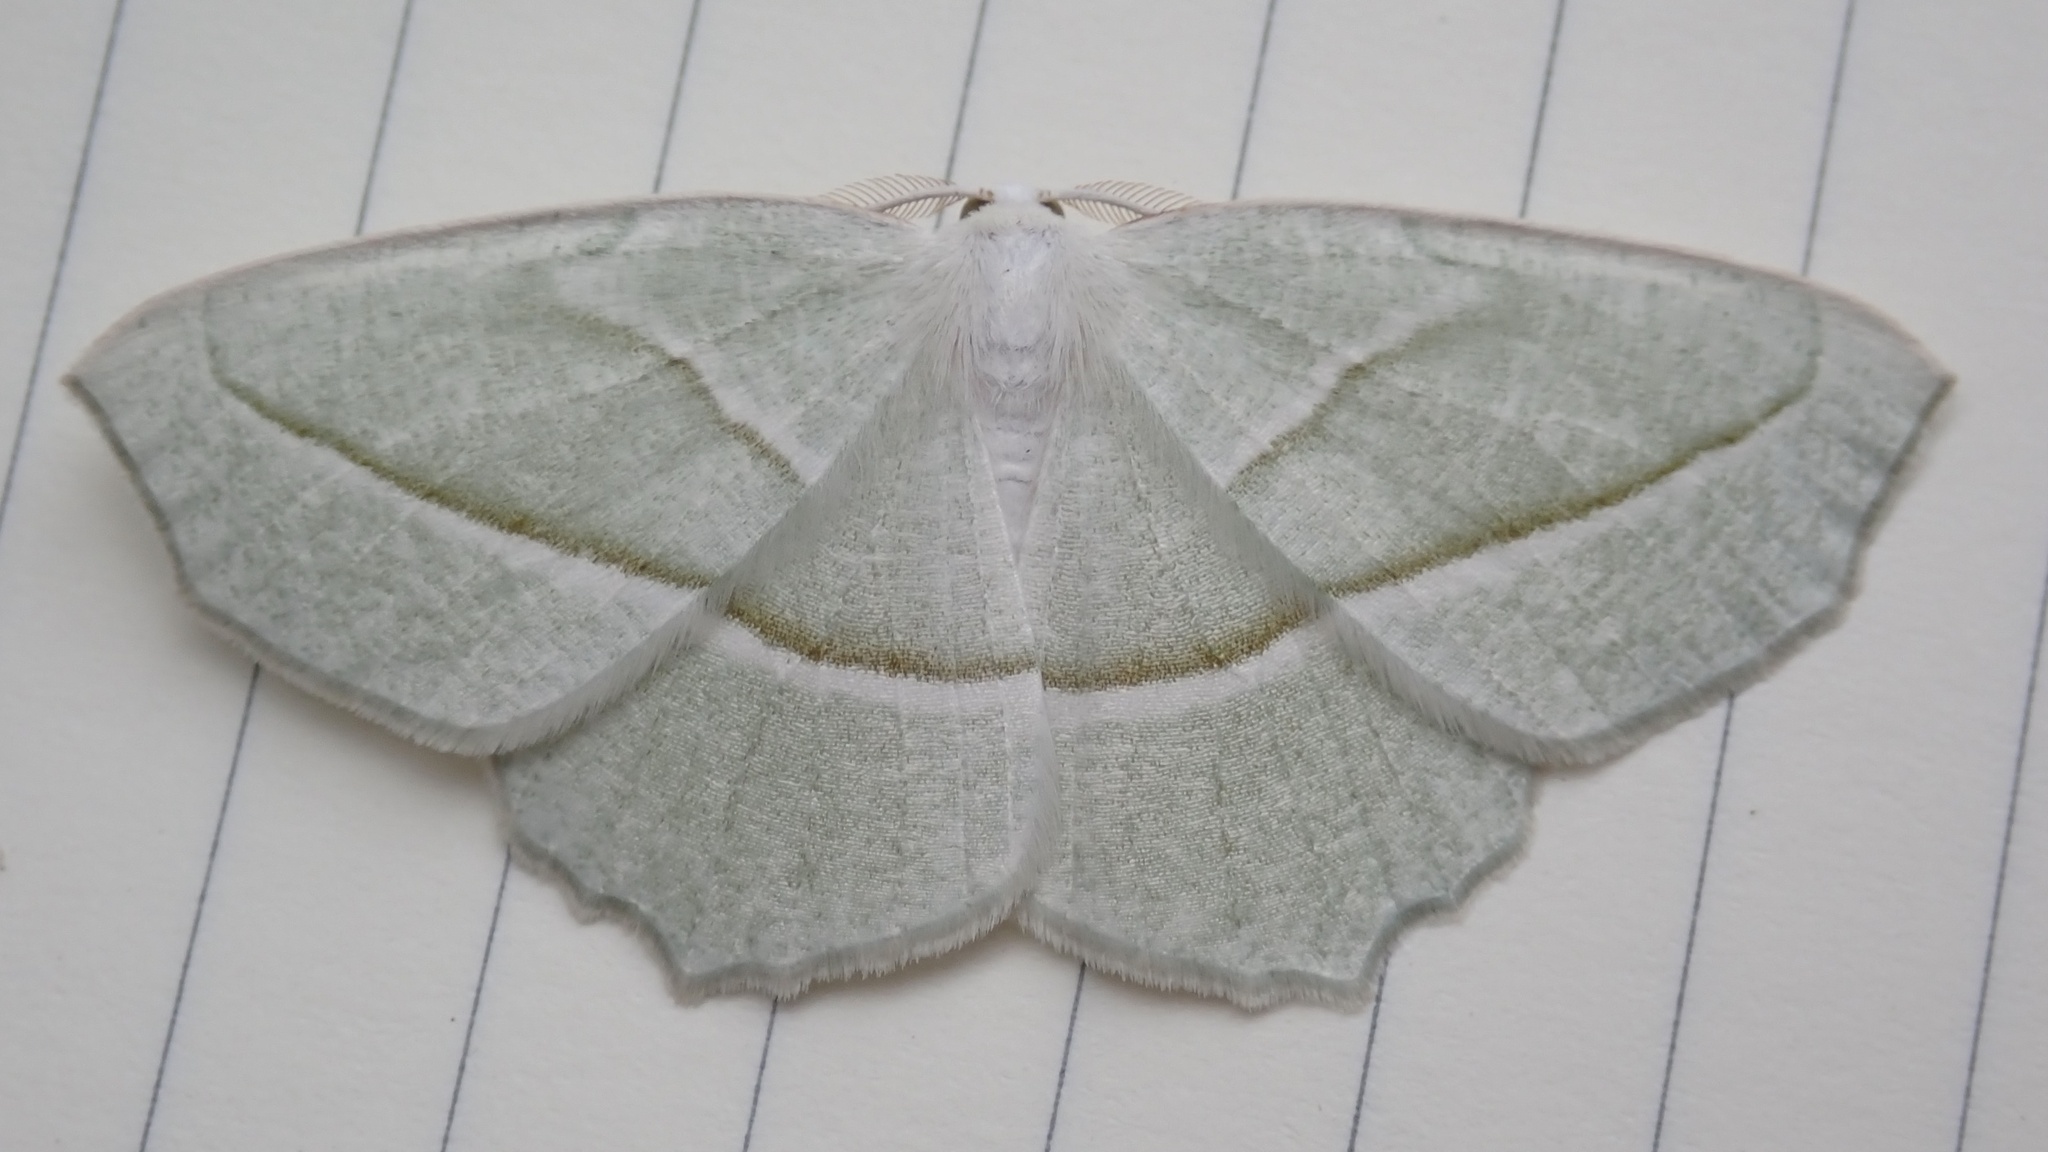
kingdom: Animalia
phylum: Arthropoda
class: Insecta
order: Lepidoptera
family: Geometridae
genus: Campaea
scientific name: Campaea perlata
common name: Fringed looper
